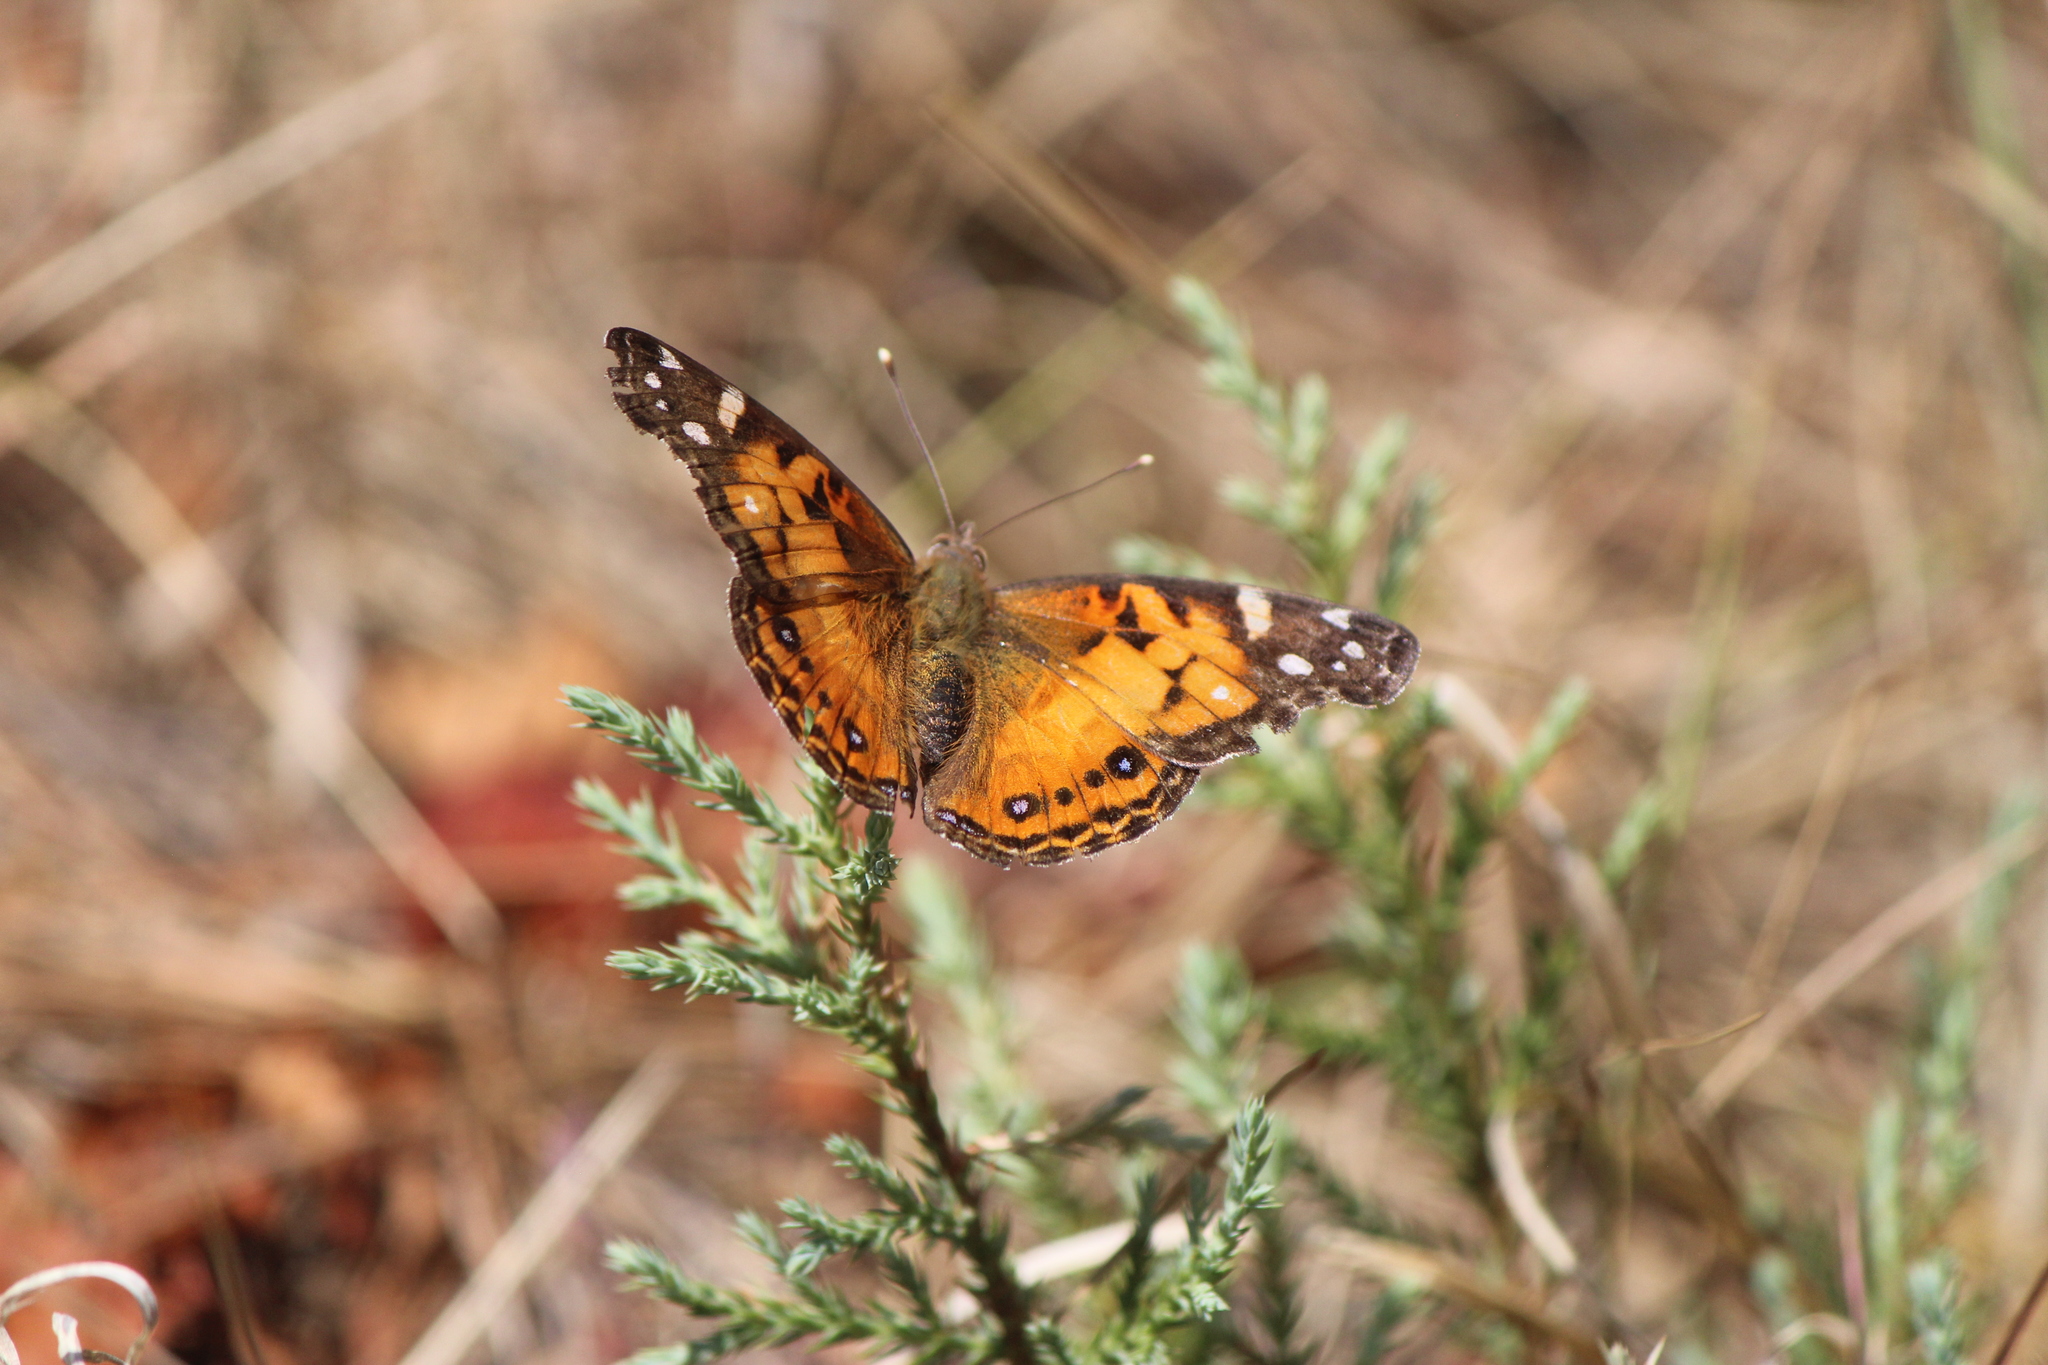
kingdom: Animalia
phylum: Arthropoda
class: Insecta
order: Lepidoptera
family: Nymphalidae
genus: Vanessa
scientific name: Vanessa virginiensis
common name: American lady
